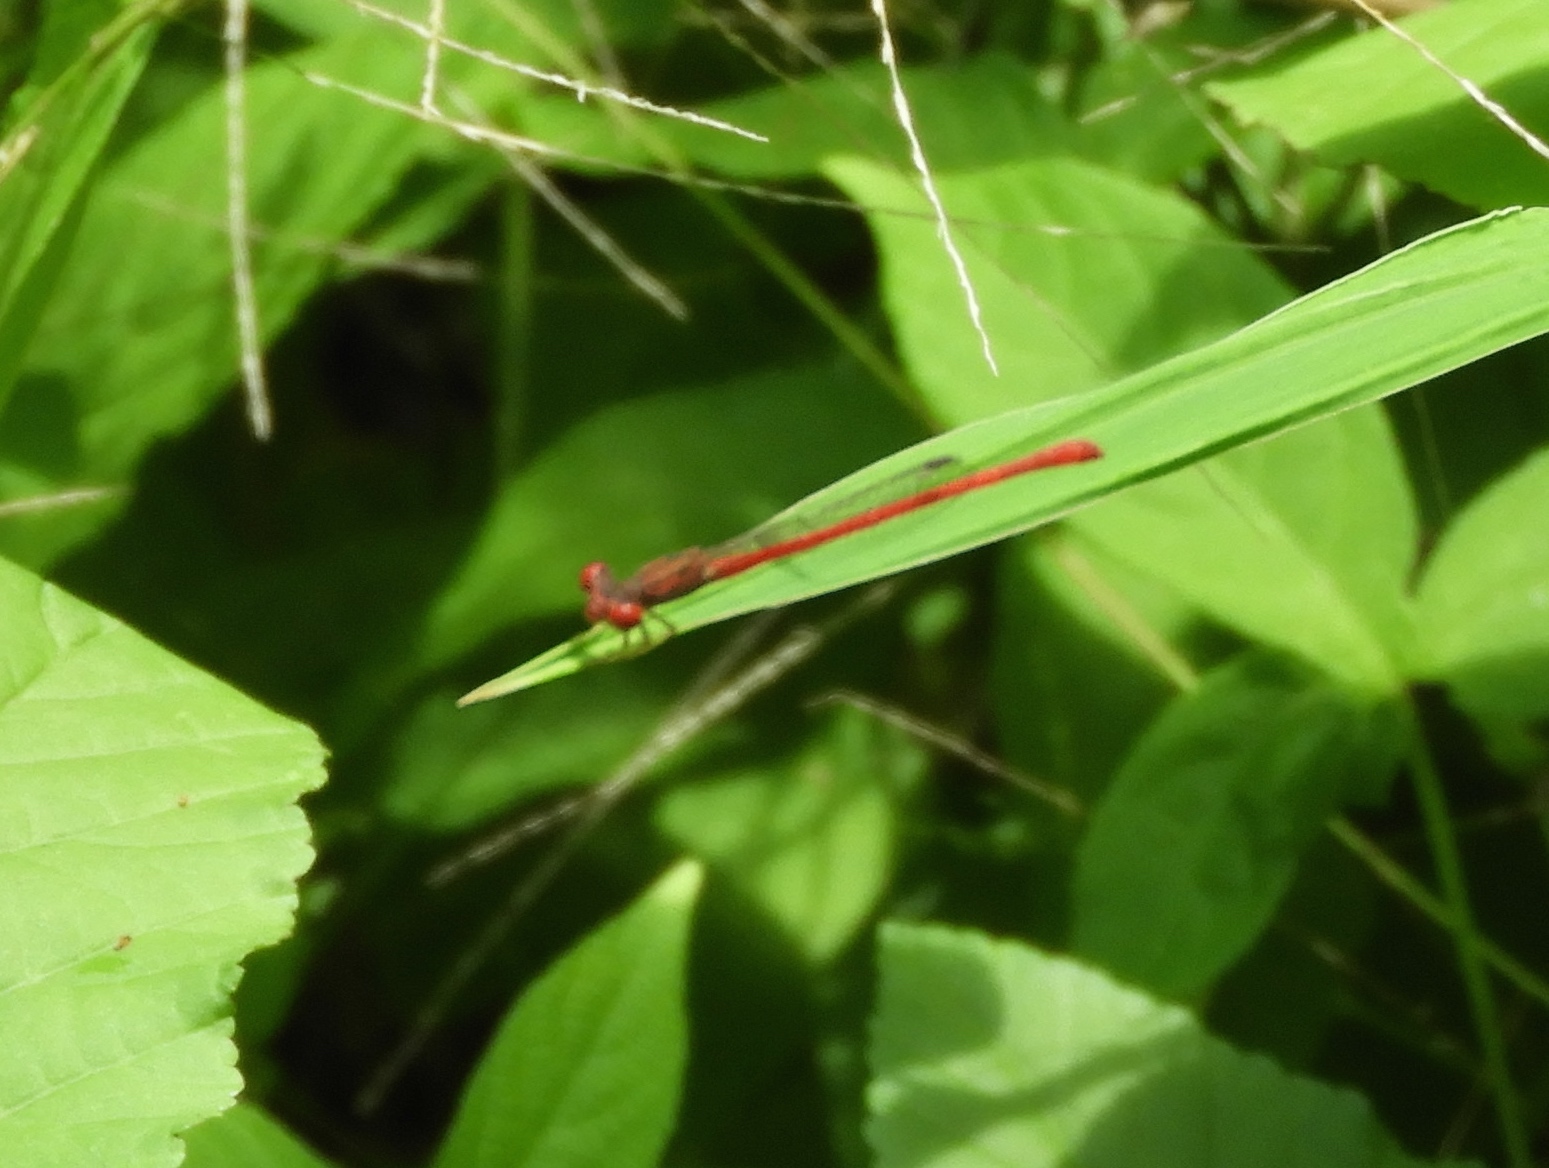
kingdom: Animalia
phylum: Arthropoda
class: Insecta
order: Odonata
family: Coenagrionidae
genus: Telebasis
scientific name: Telebasis salva
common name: Desert firetail
